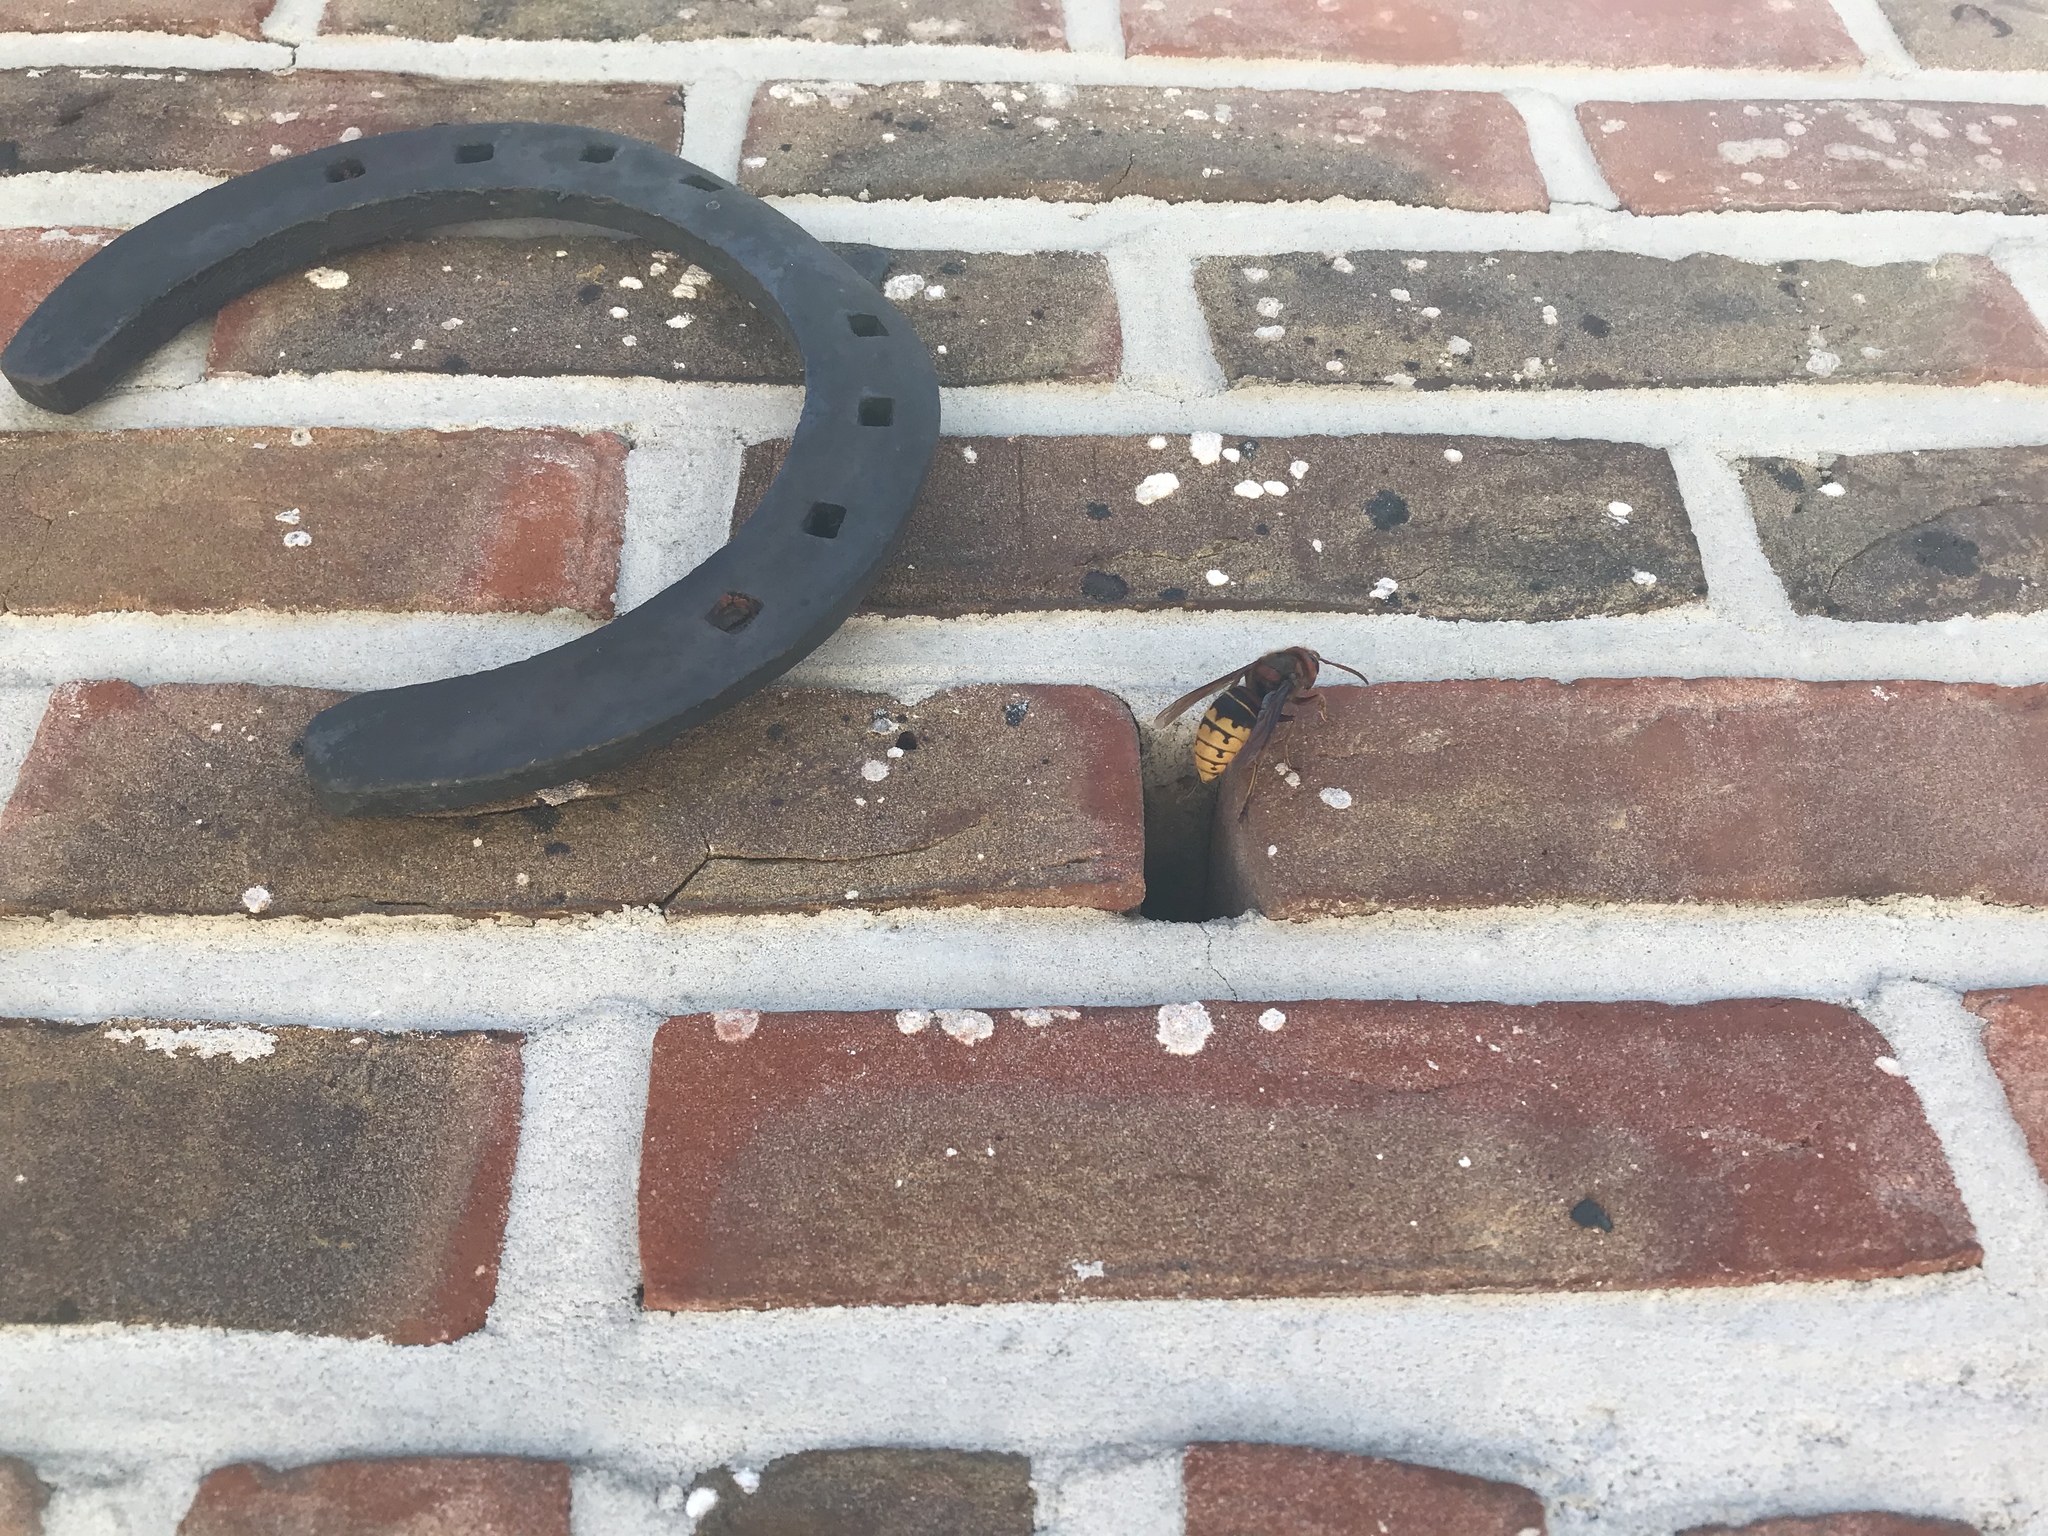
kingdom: Animalia
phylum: Arthropoda
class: Insecta
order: Hymenoptera
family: Vespidae
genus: Vespa
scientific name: Vespa crabro
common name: Hornet
